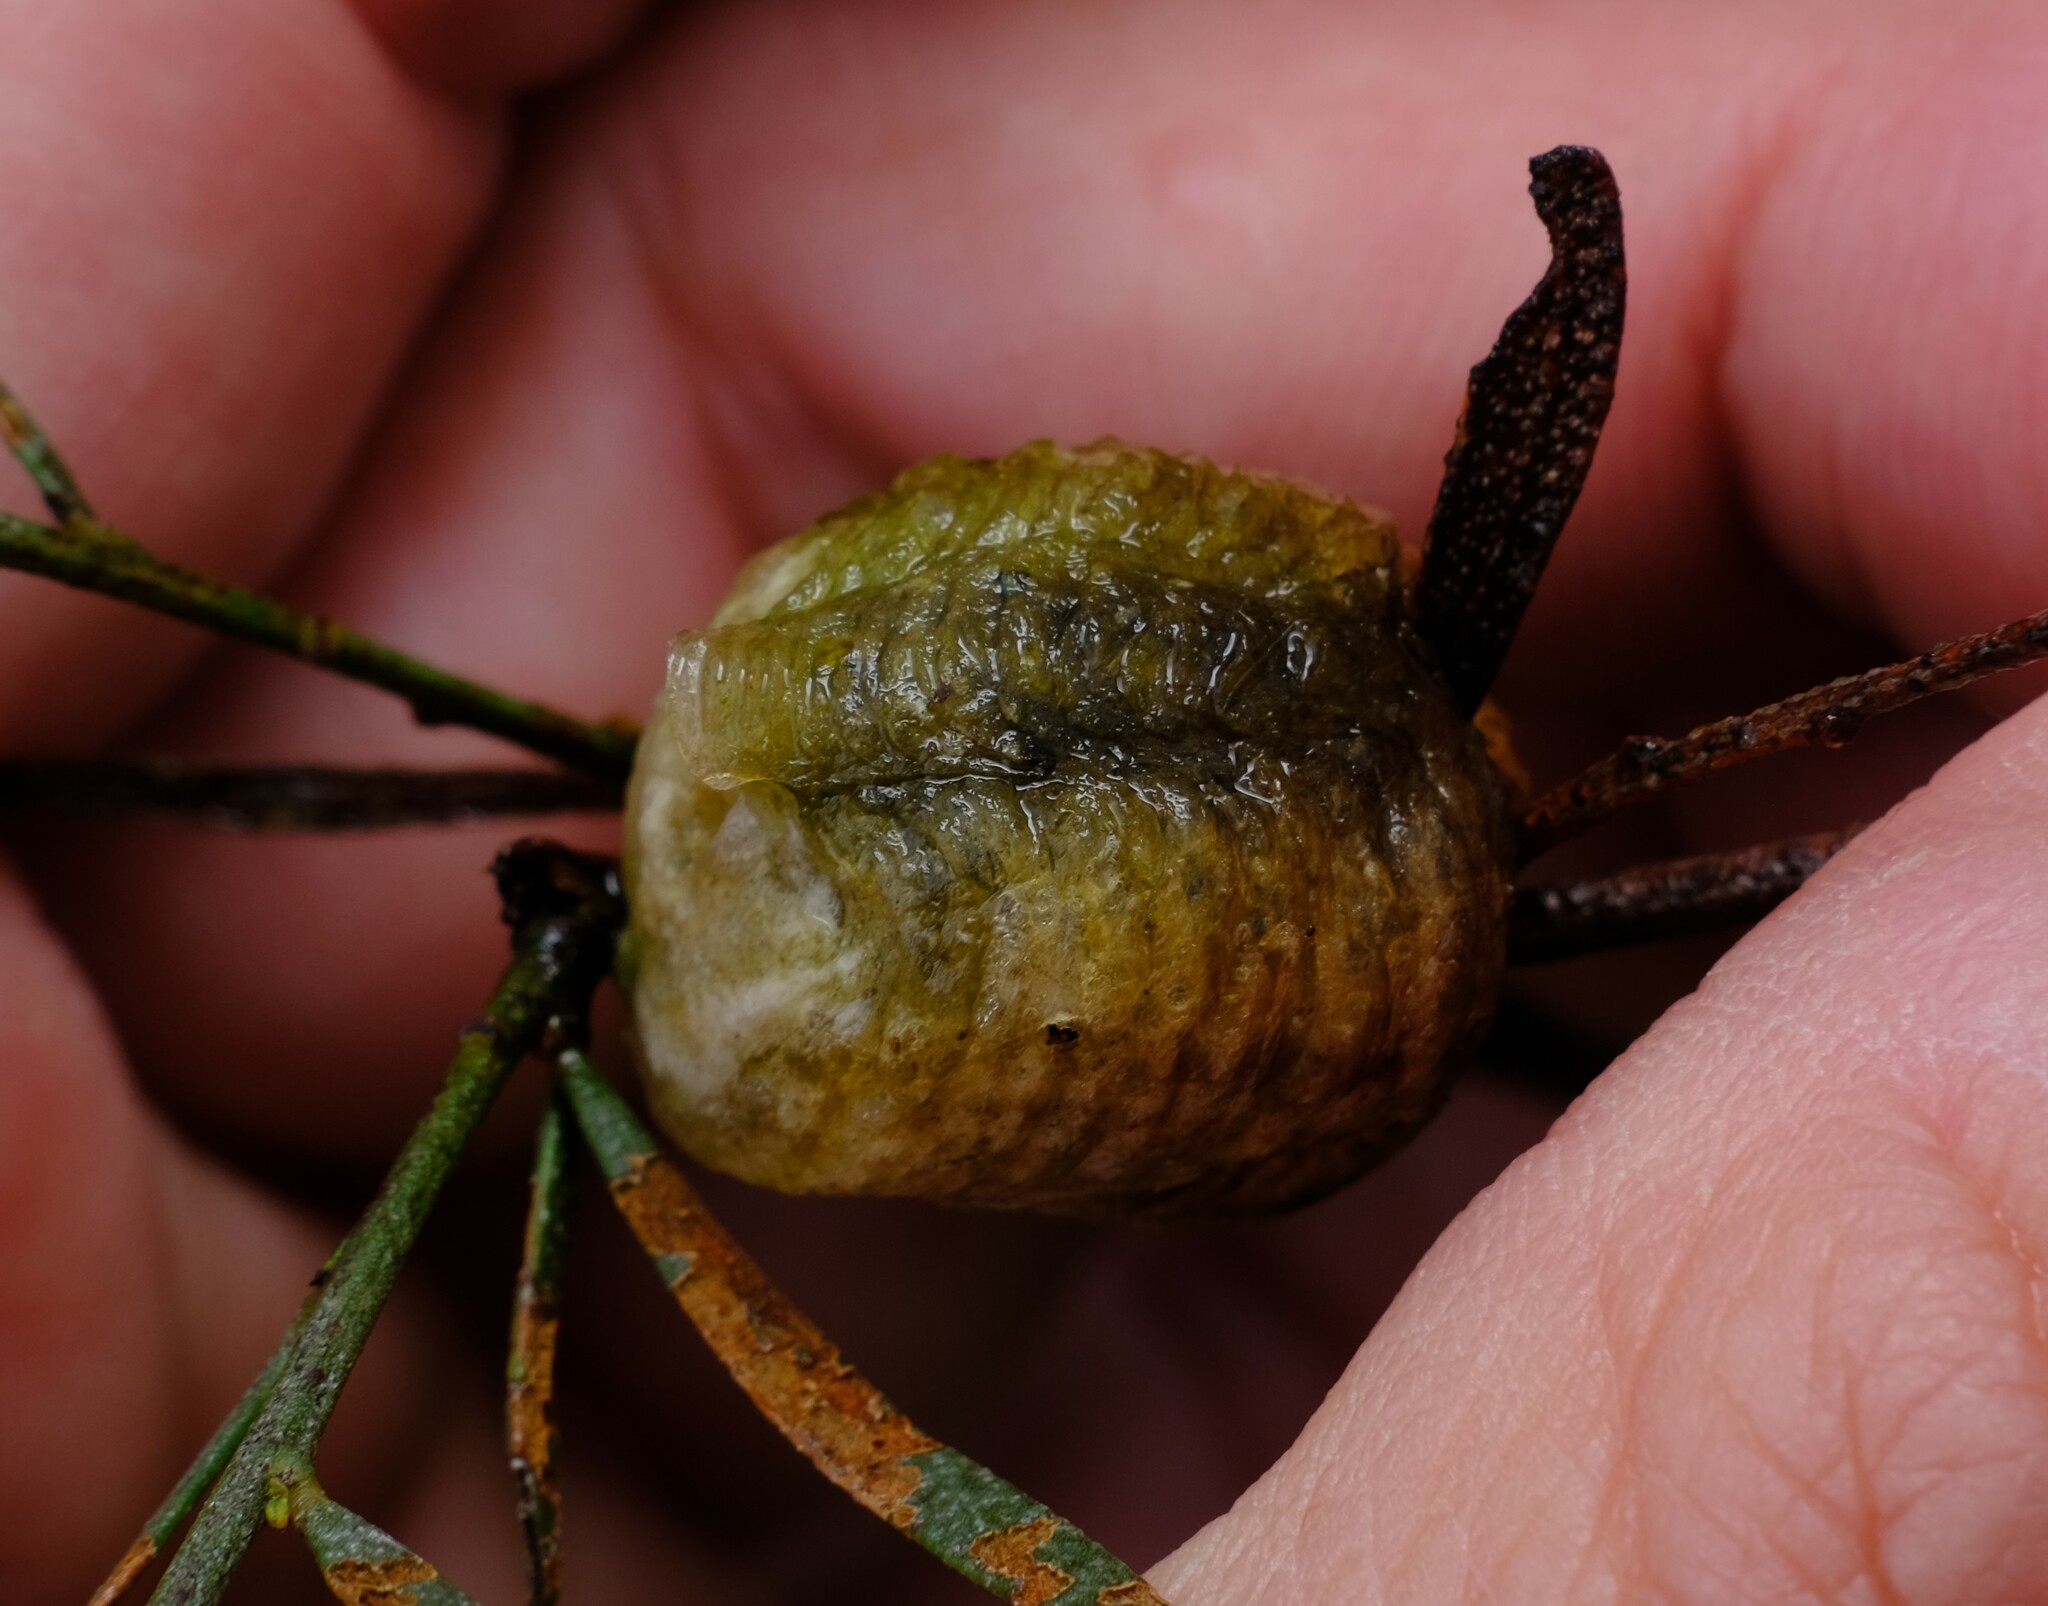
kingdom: Animalia
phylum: Arthropoda
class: Insecta
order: Mantodea
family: Mantidae
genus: Archimantis
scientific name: Archimantis sobrina
